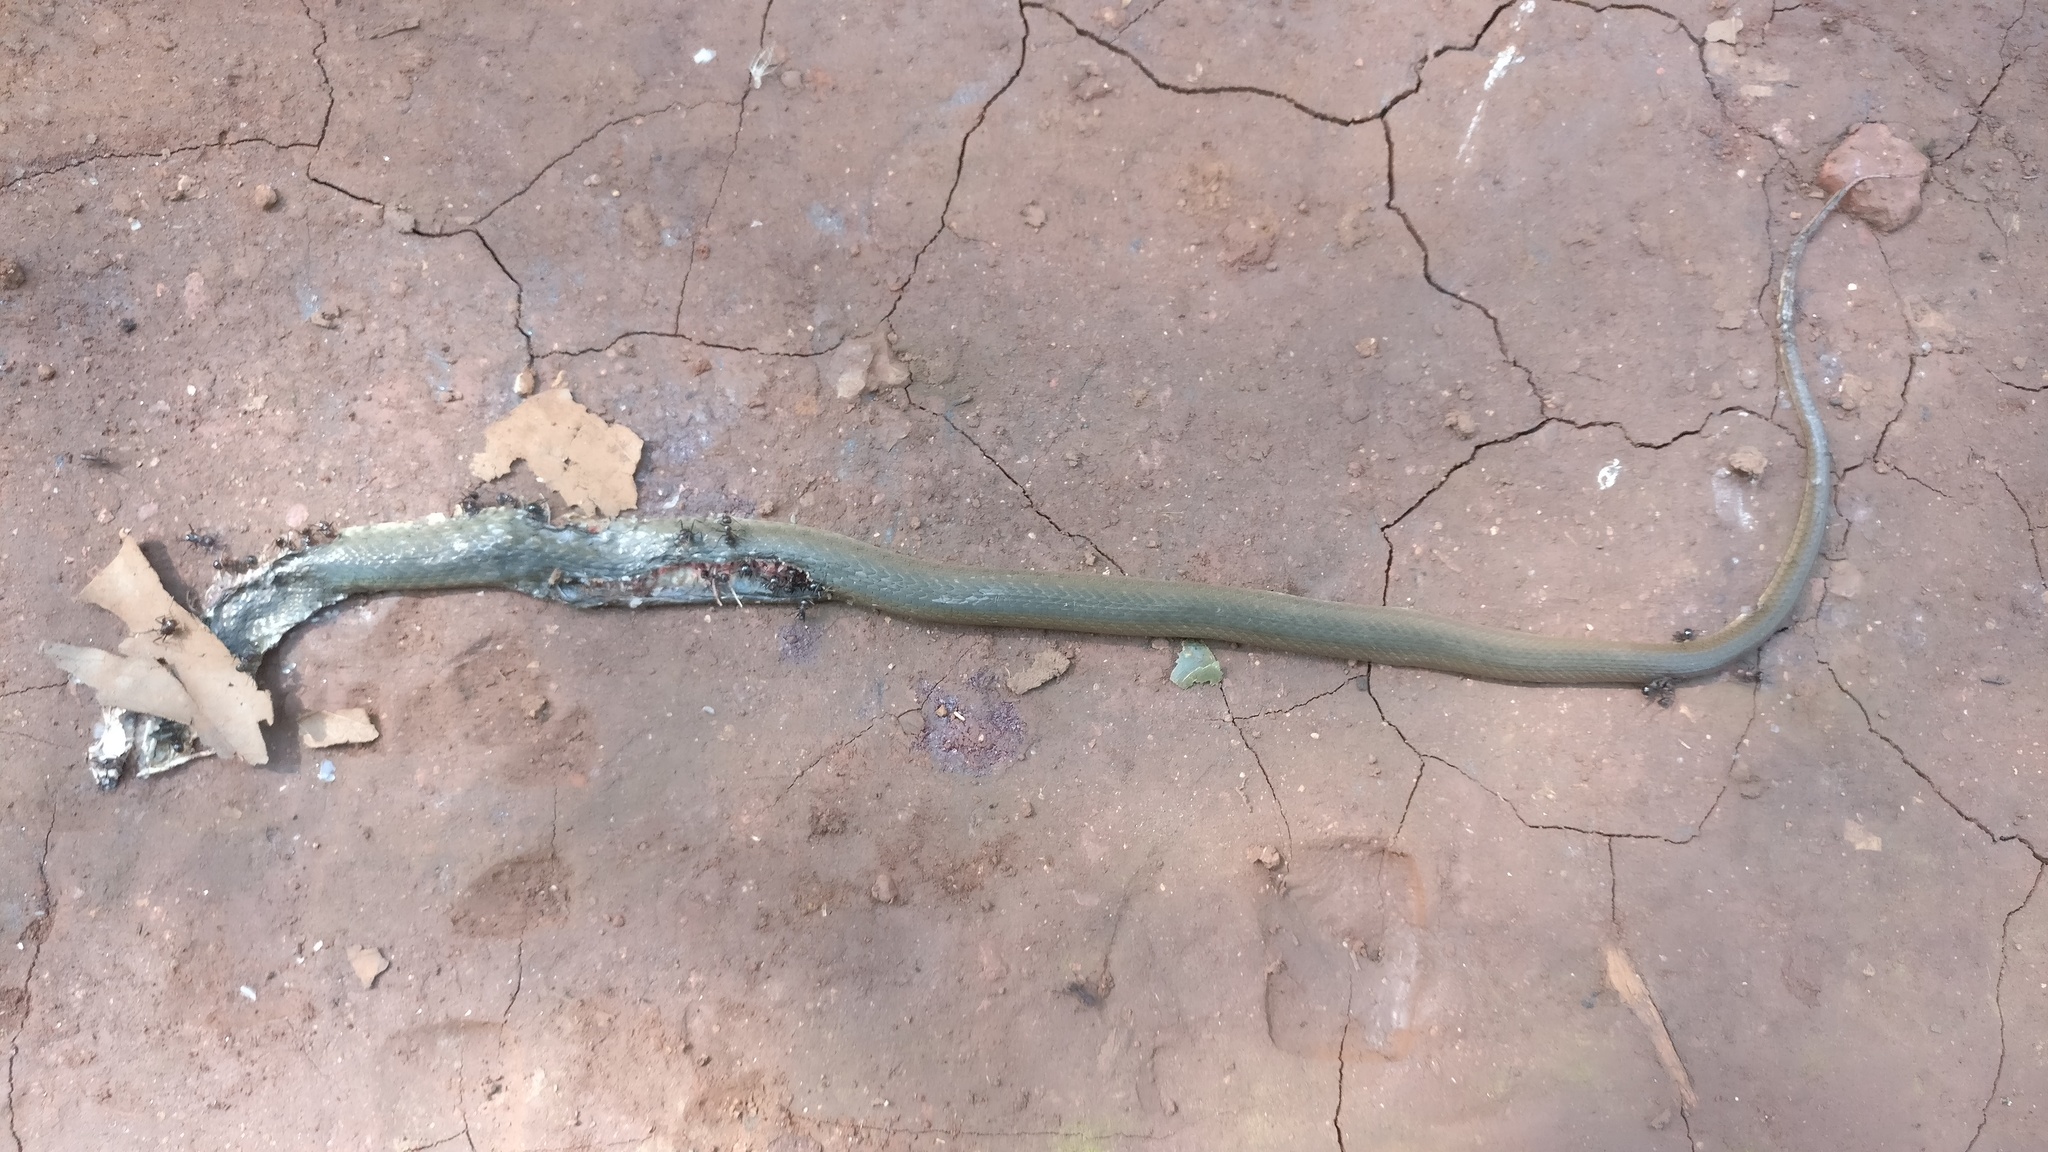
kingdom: Animalia
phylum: Chordata
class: Squamata
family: Colubridae
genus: Fowlea
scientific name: Fowlea piscator
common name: Asiatic water snake
